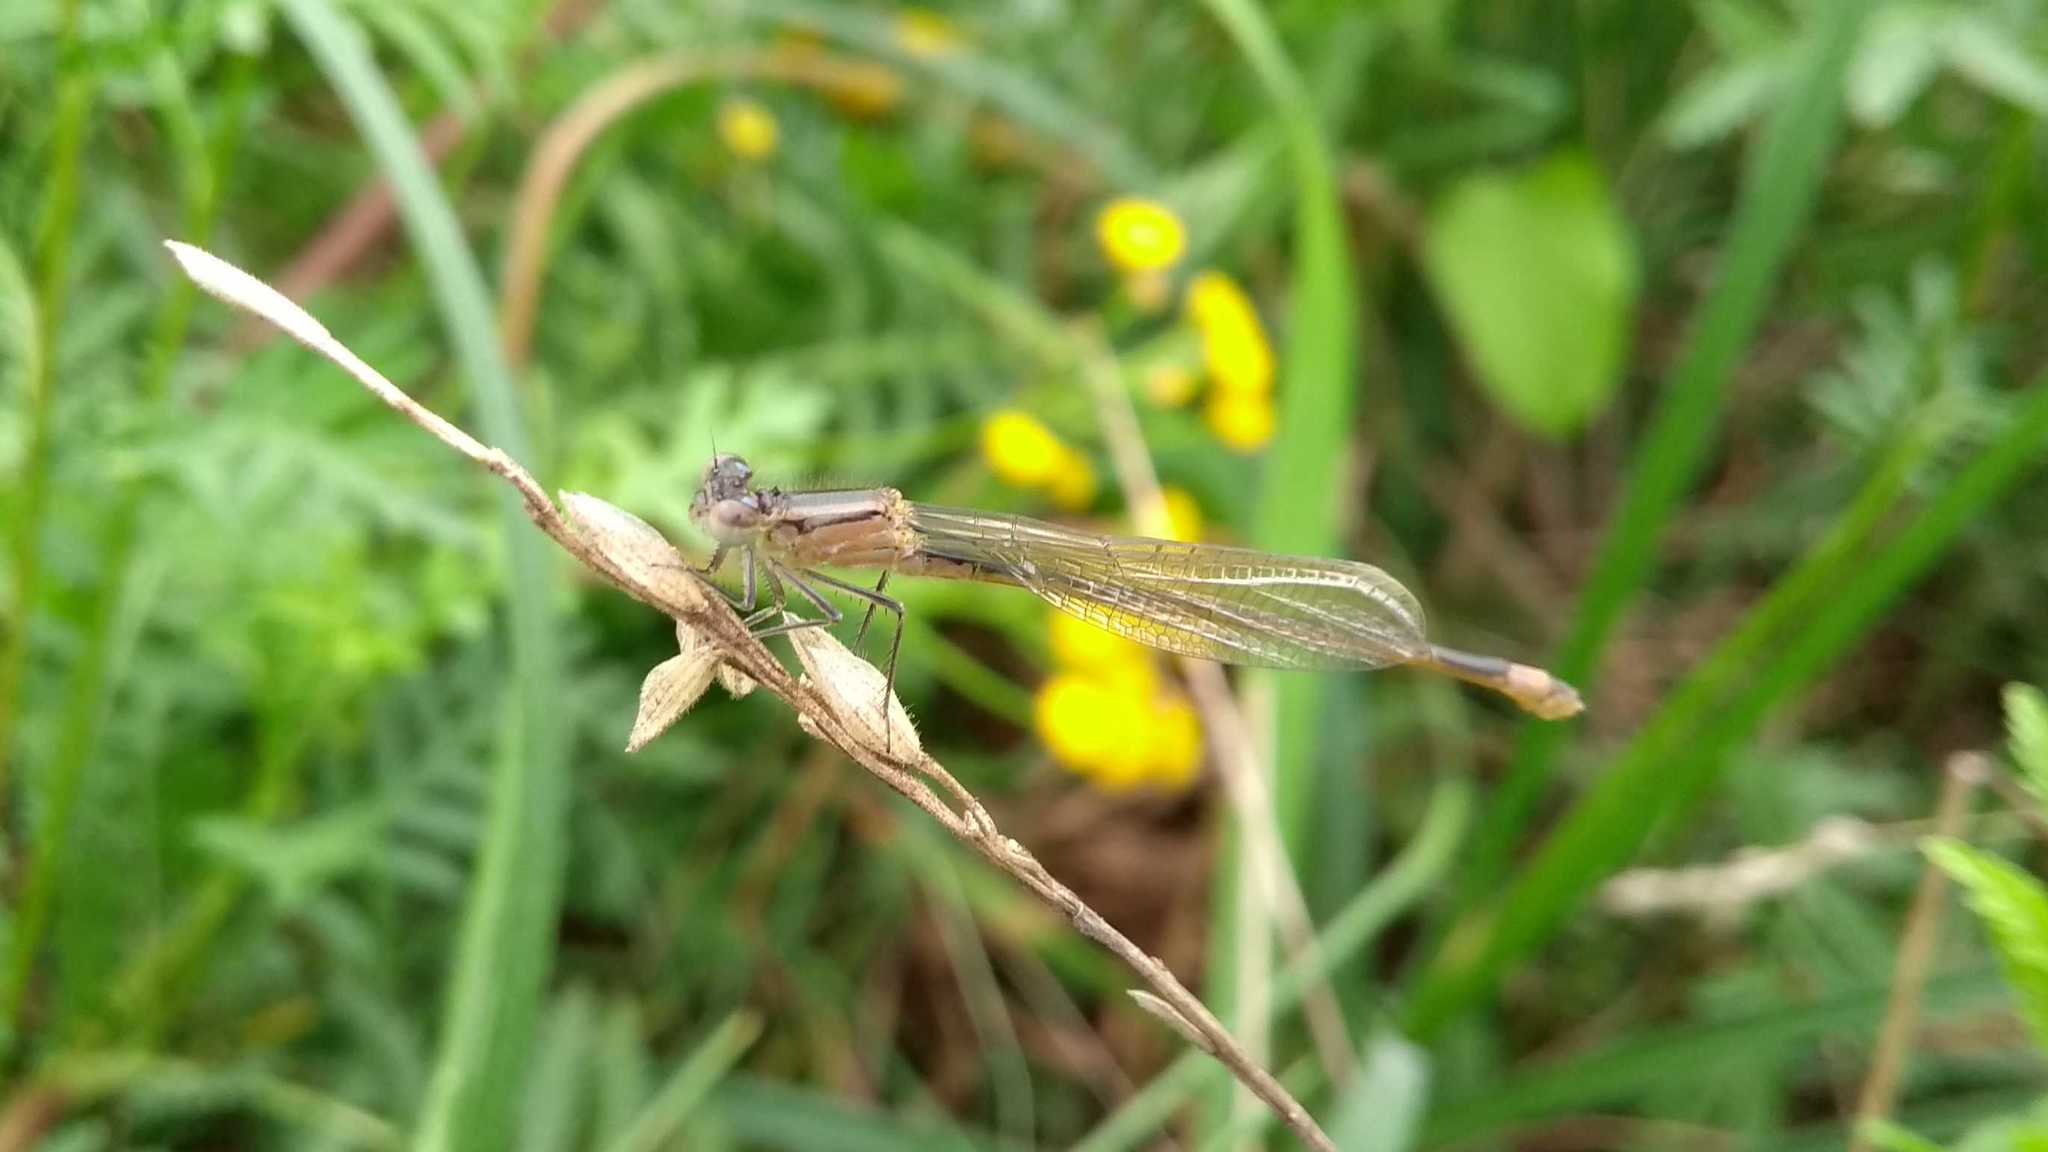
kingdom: Animalia
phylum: Arthropoda
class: Insecta
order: Odonata
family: Coenagrionidae
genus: Ischnura
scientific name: Ischnura elegans
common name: Blue-tailed damselfly
